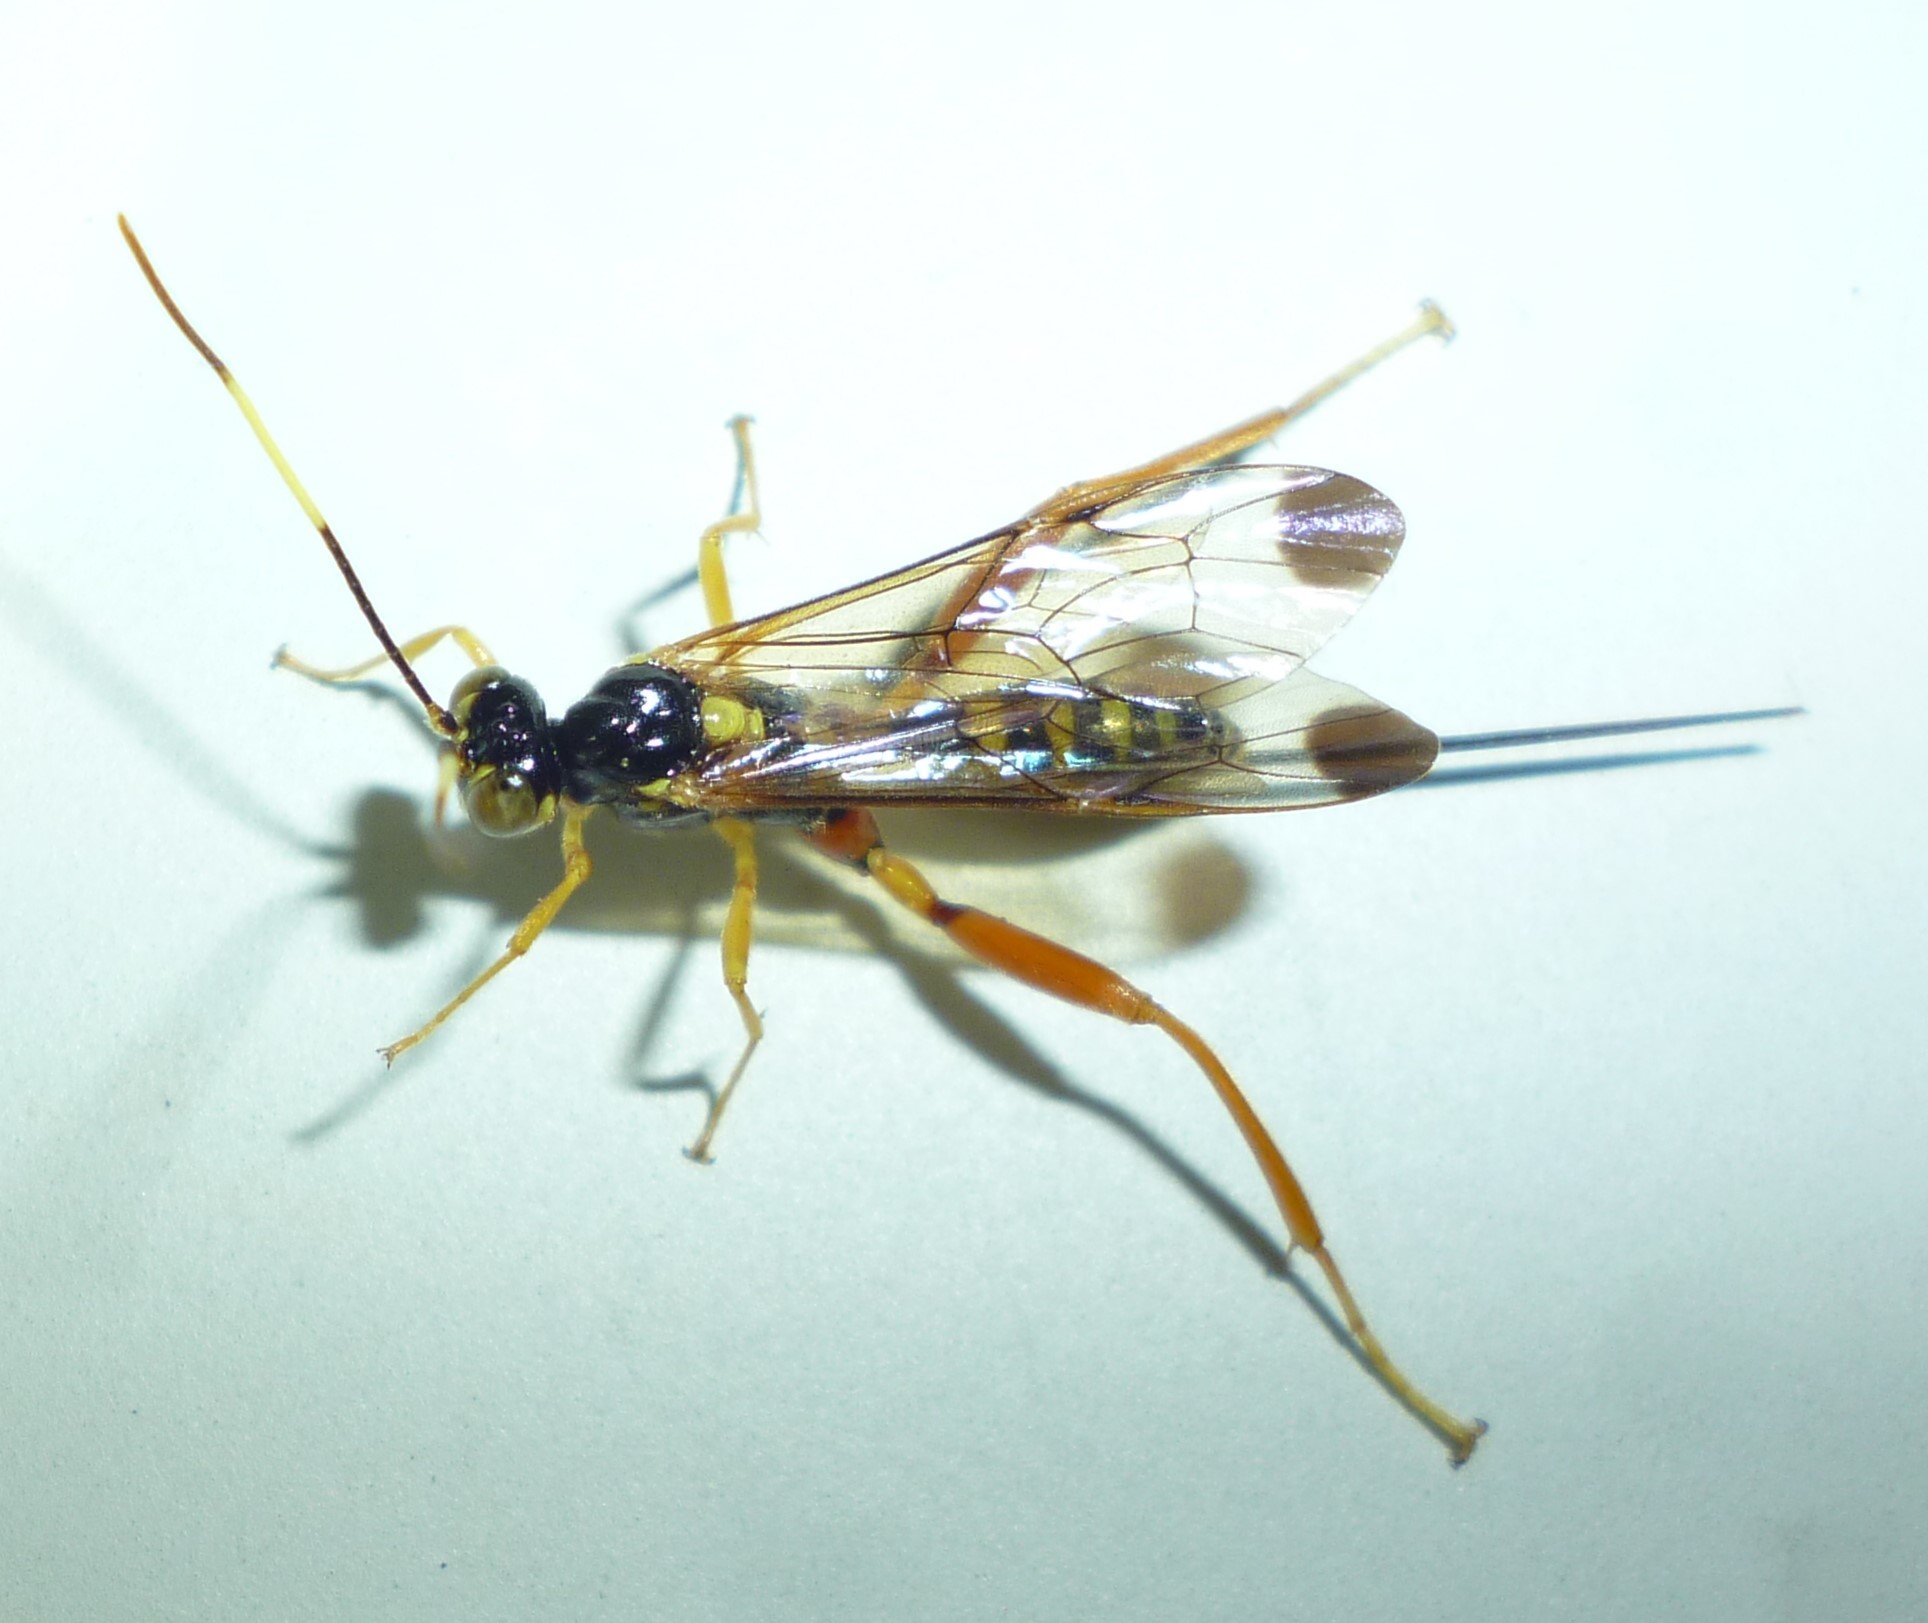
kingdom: Animalia
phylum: Arthropoda
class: Insecta
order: Hymenoptera
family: Ichneumonidae
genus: Spilopteron
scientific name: Spilopteron occiputale
